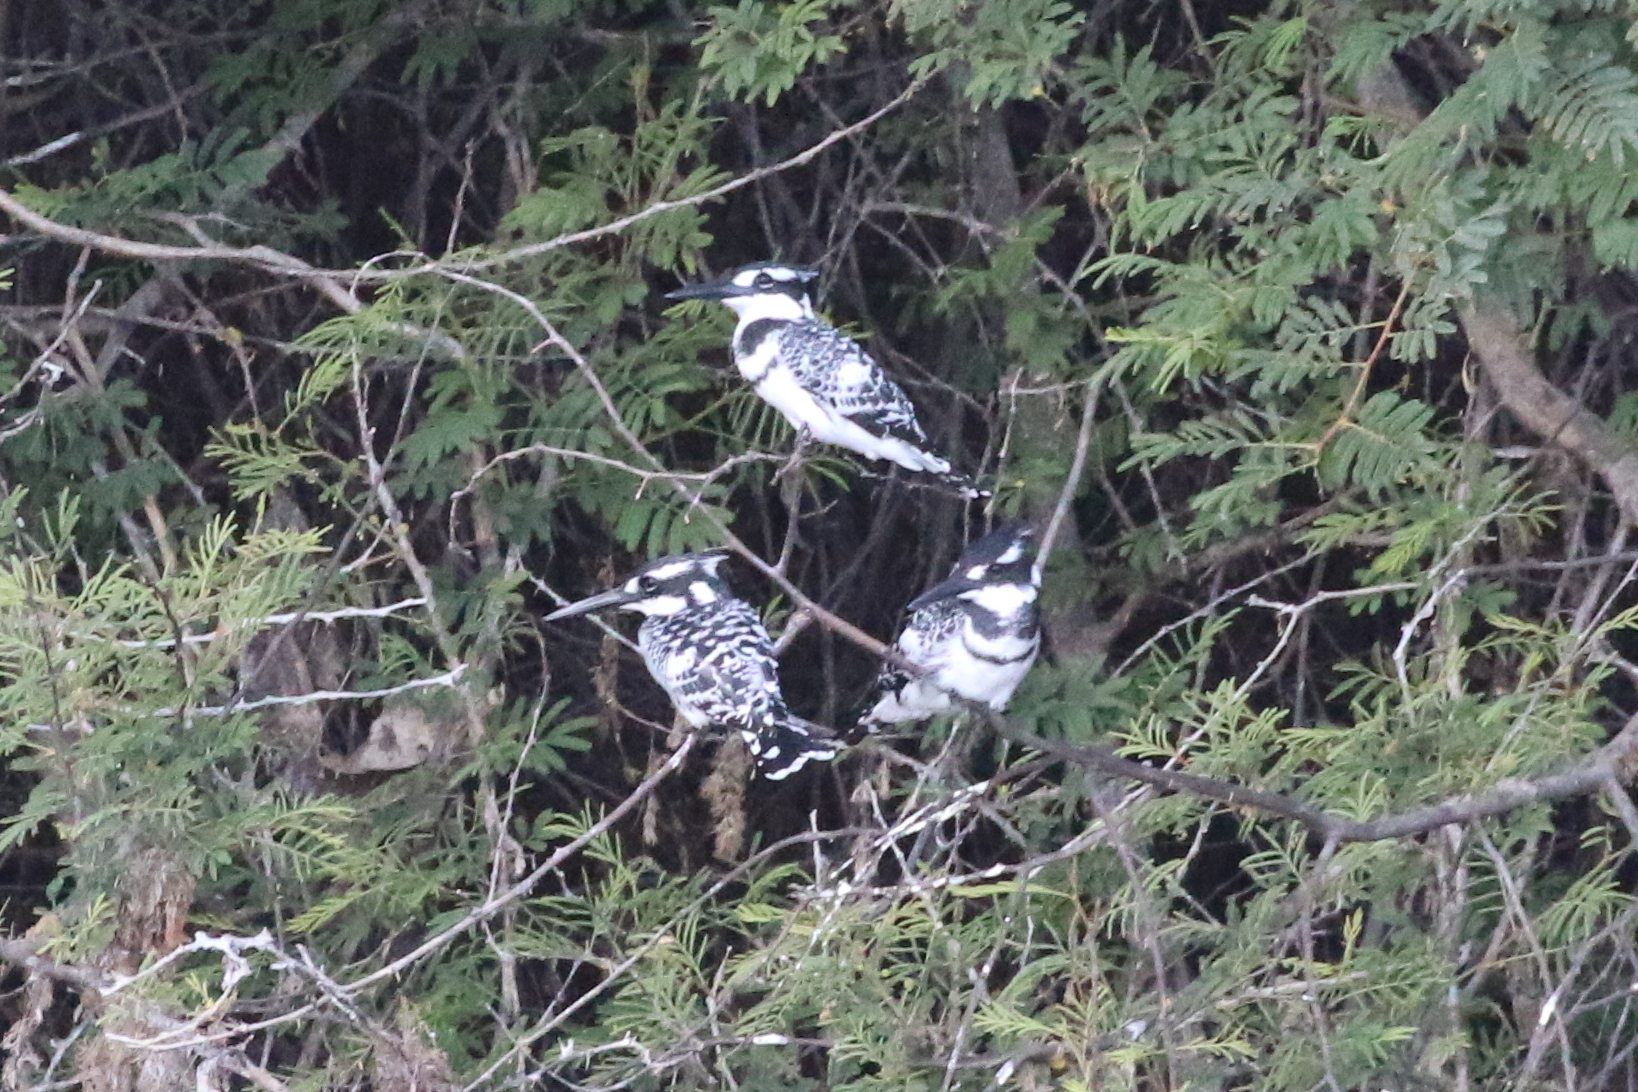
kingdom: Animalia
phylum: Chordata
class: Aves
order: Coraciiformes
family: Alcedinidae
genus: Ceryle
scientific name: Ceryle rudis
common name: Pied kingfisher
